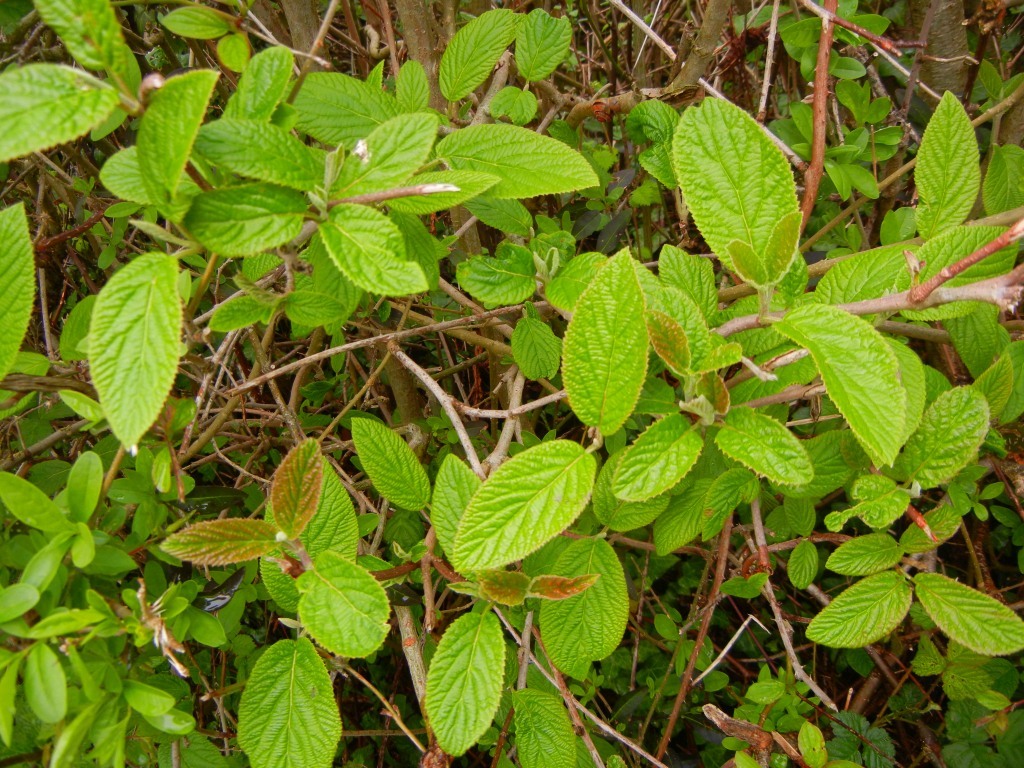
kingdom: Plantae
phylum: Tracheophyta
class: Magnoliopsida
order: Dipsacales
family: Viburnaceae
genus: Viburnum
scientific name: Viburnum lantana
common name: Wayfaring tree
